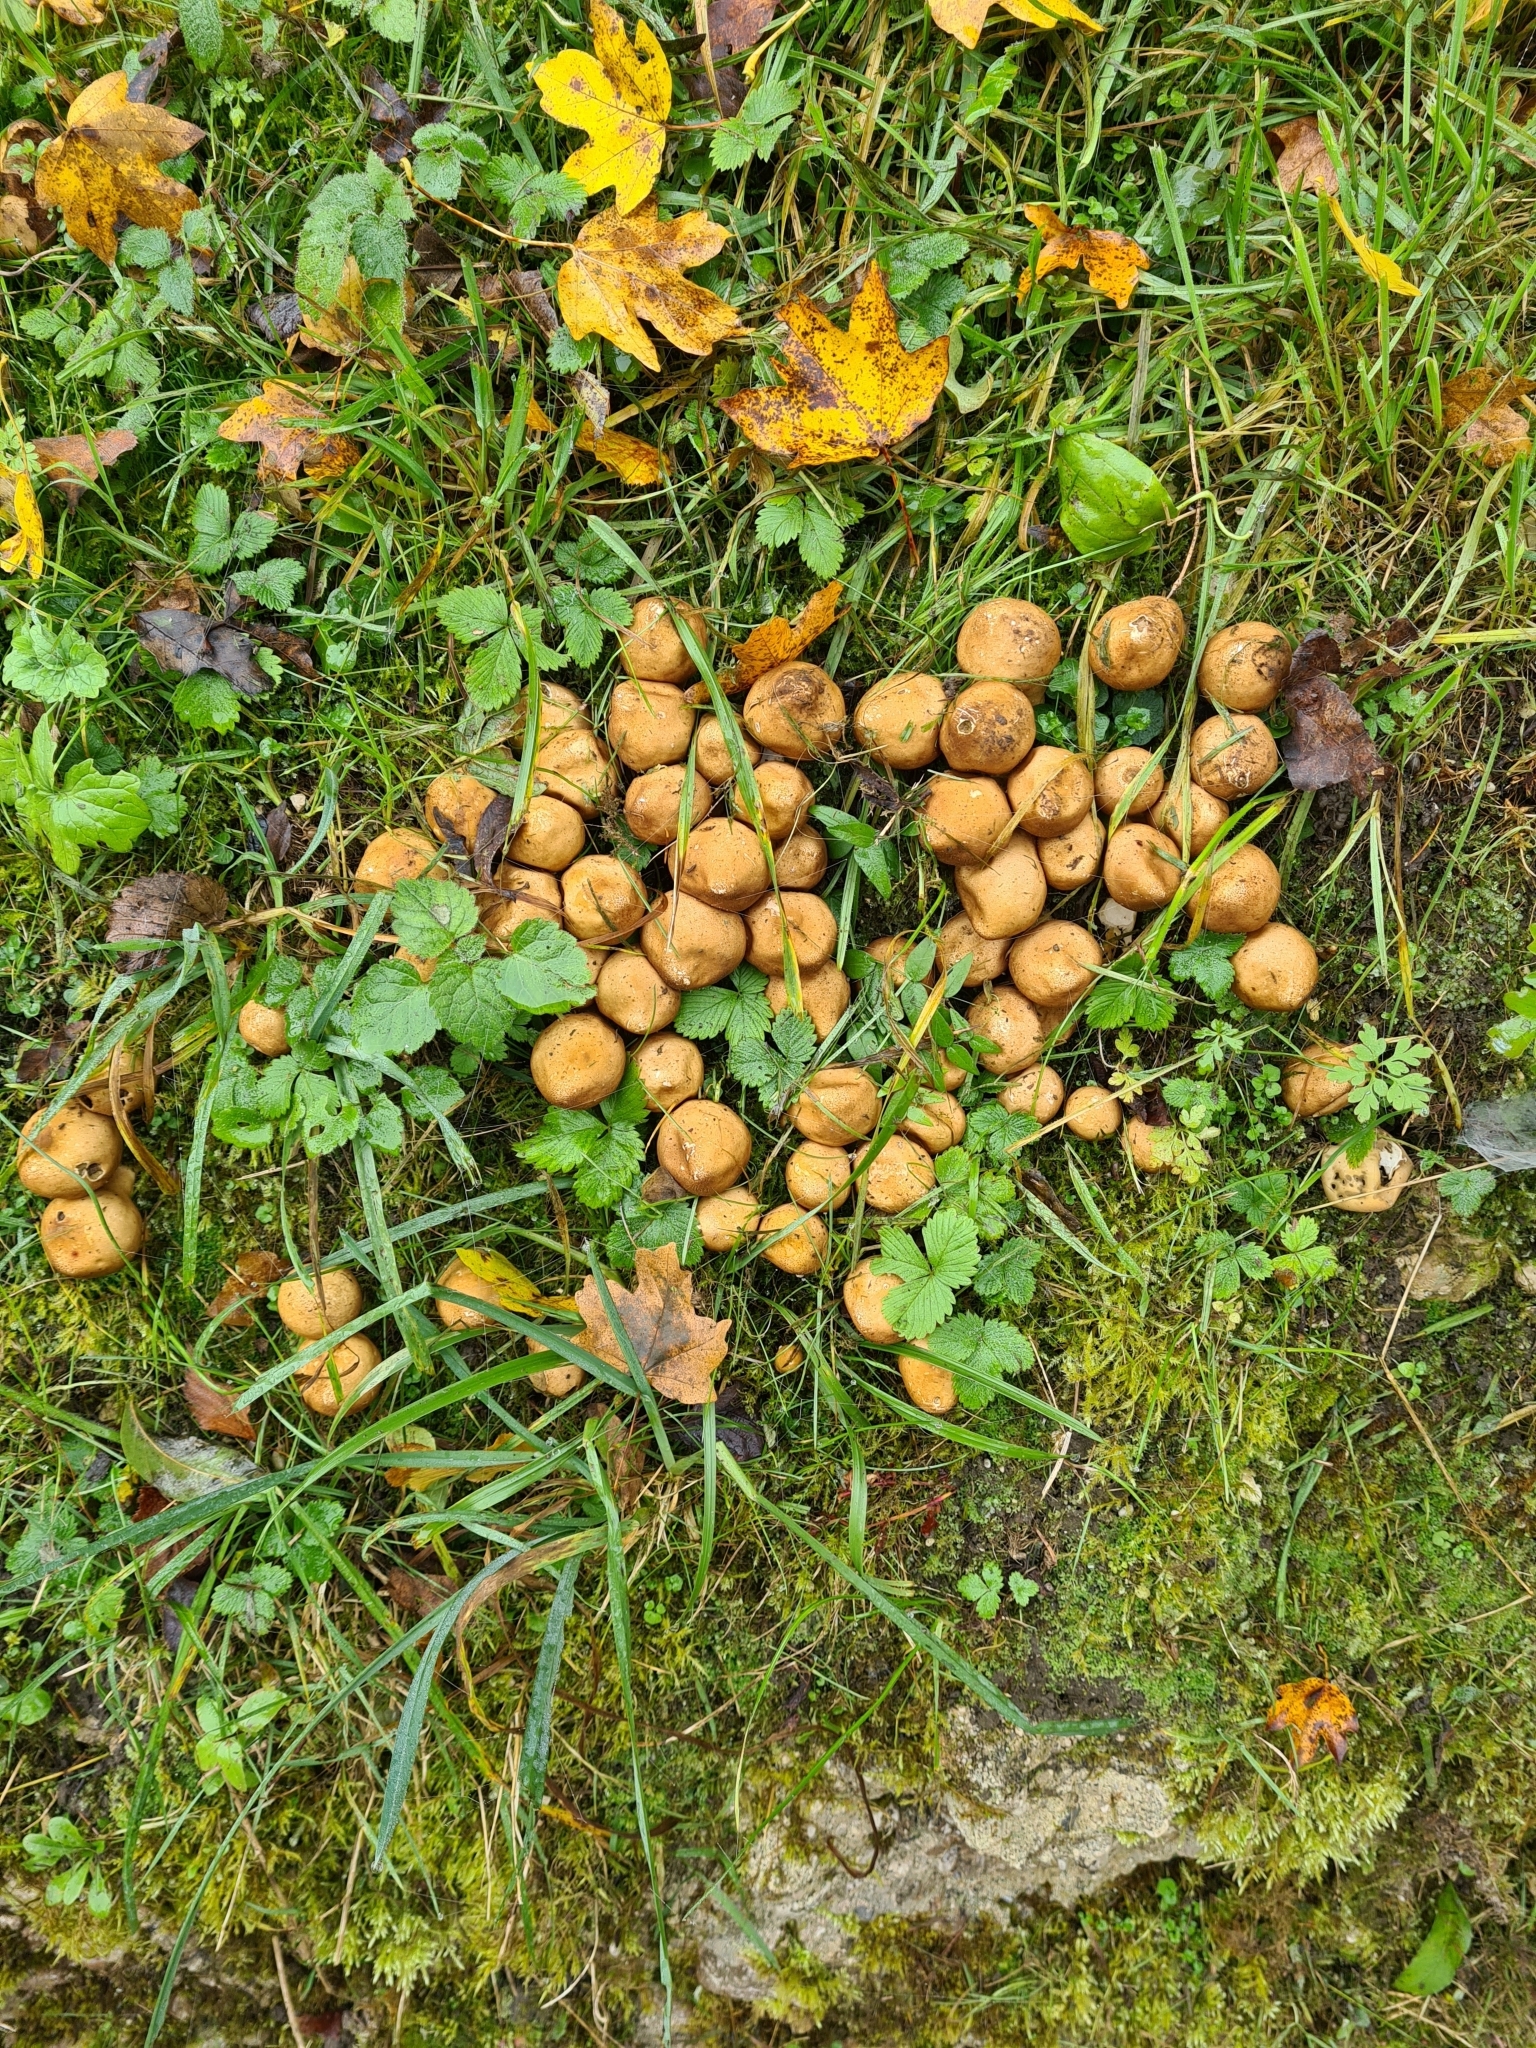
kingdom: Fungi
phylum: Basidiomycota
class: Agaricomycetes
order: Agaricales
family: Lycoperdaceae
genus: Apioperdon
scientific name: Apioperdon pyriforme
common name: Pear-shaped puffball
